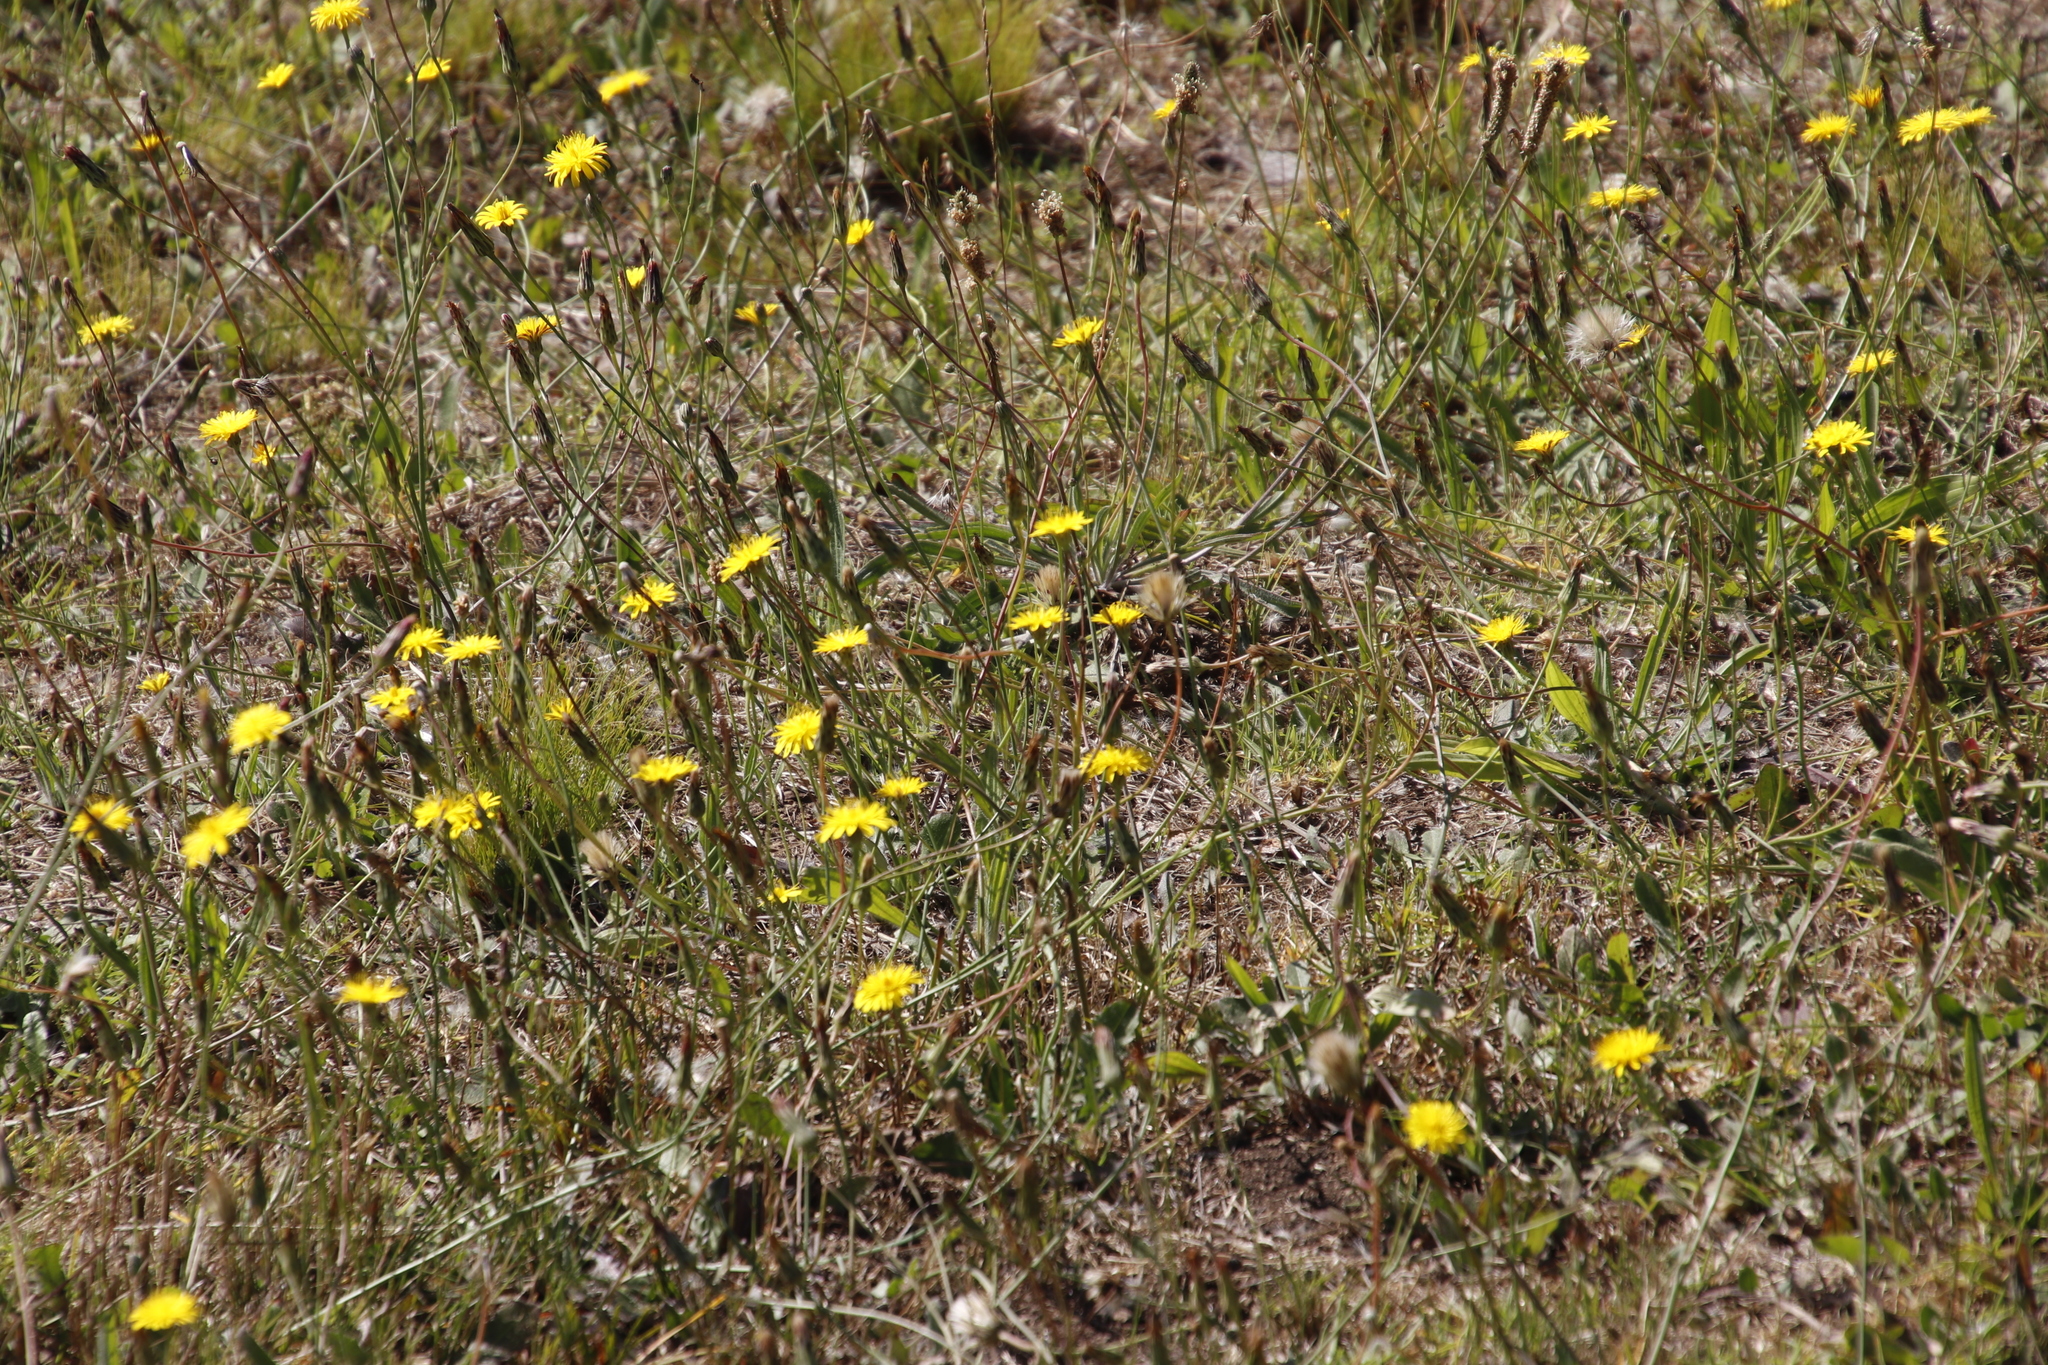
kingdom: Plantae
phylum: Tracheophyta
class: Magnoliopsida
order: Asterales
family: Asteraceae
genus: Hypochaeris
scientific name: Hypochaeris radicata
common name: Flatweed
